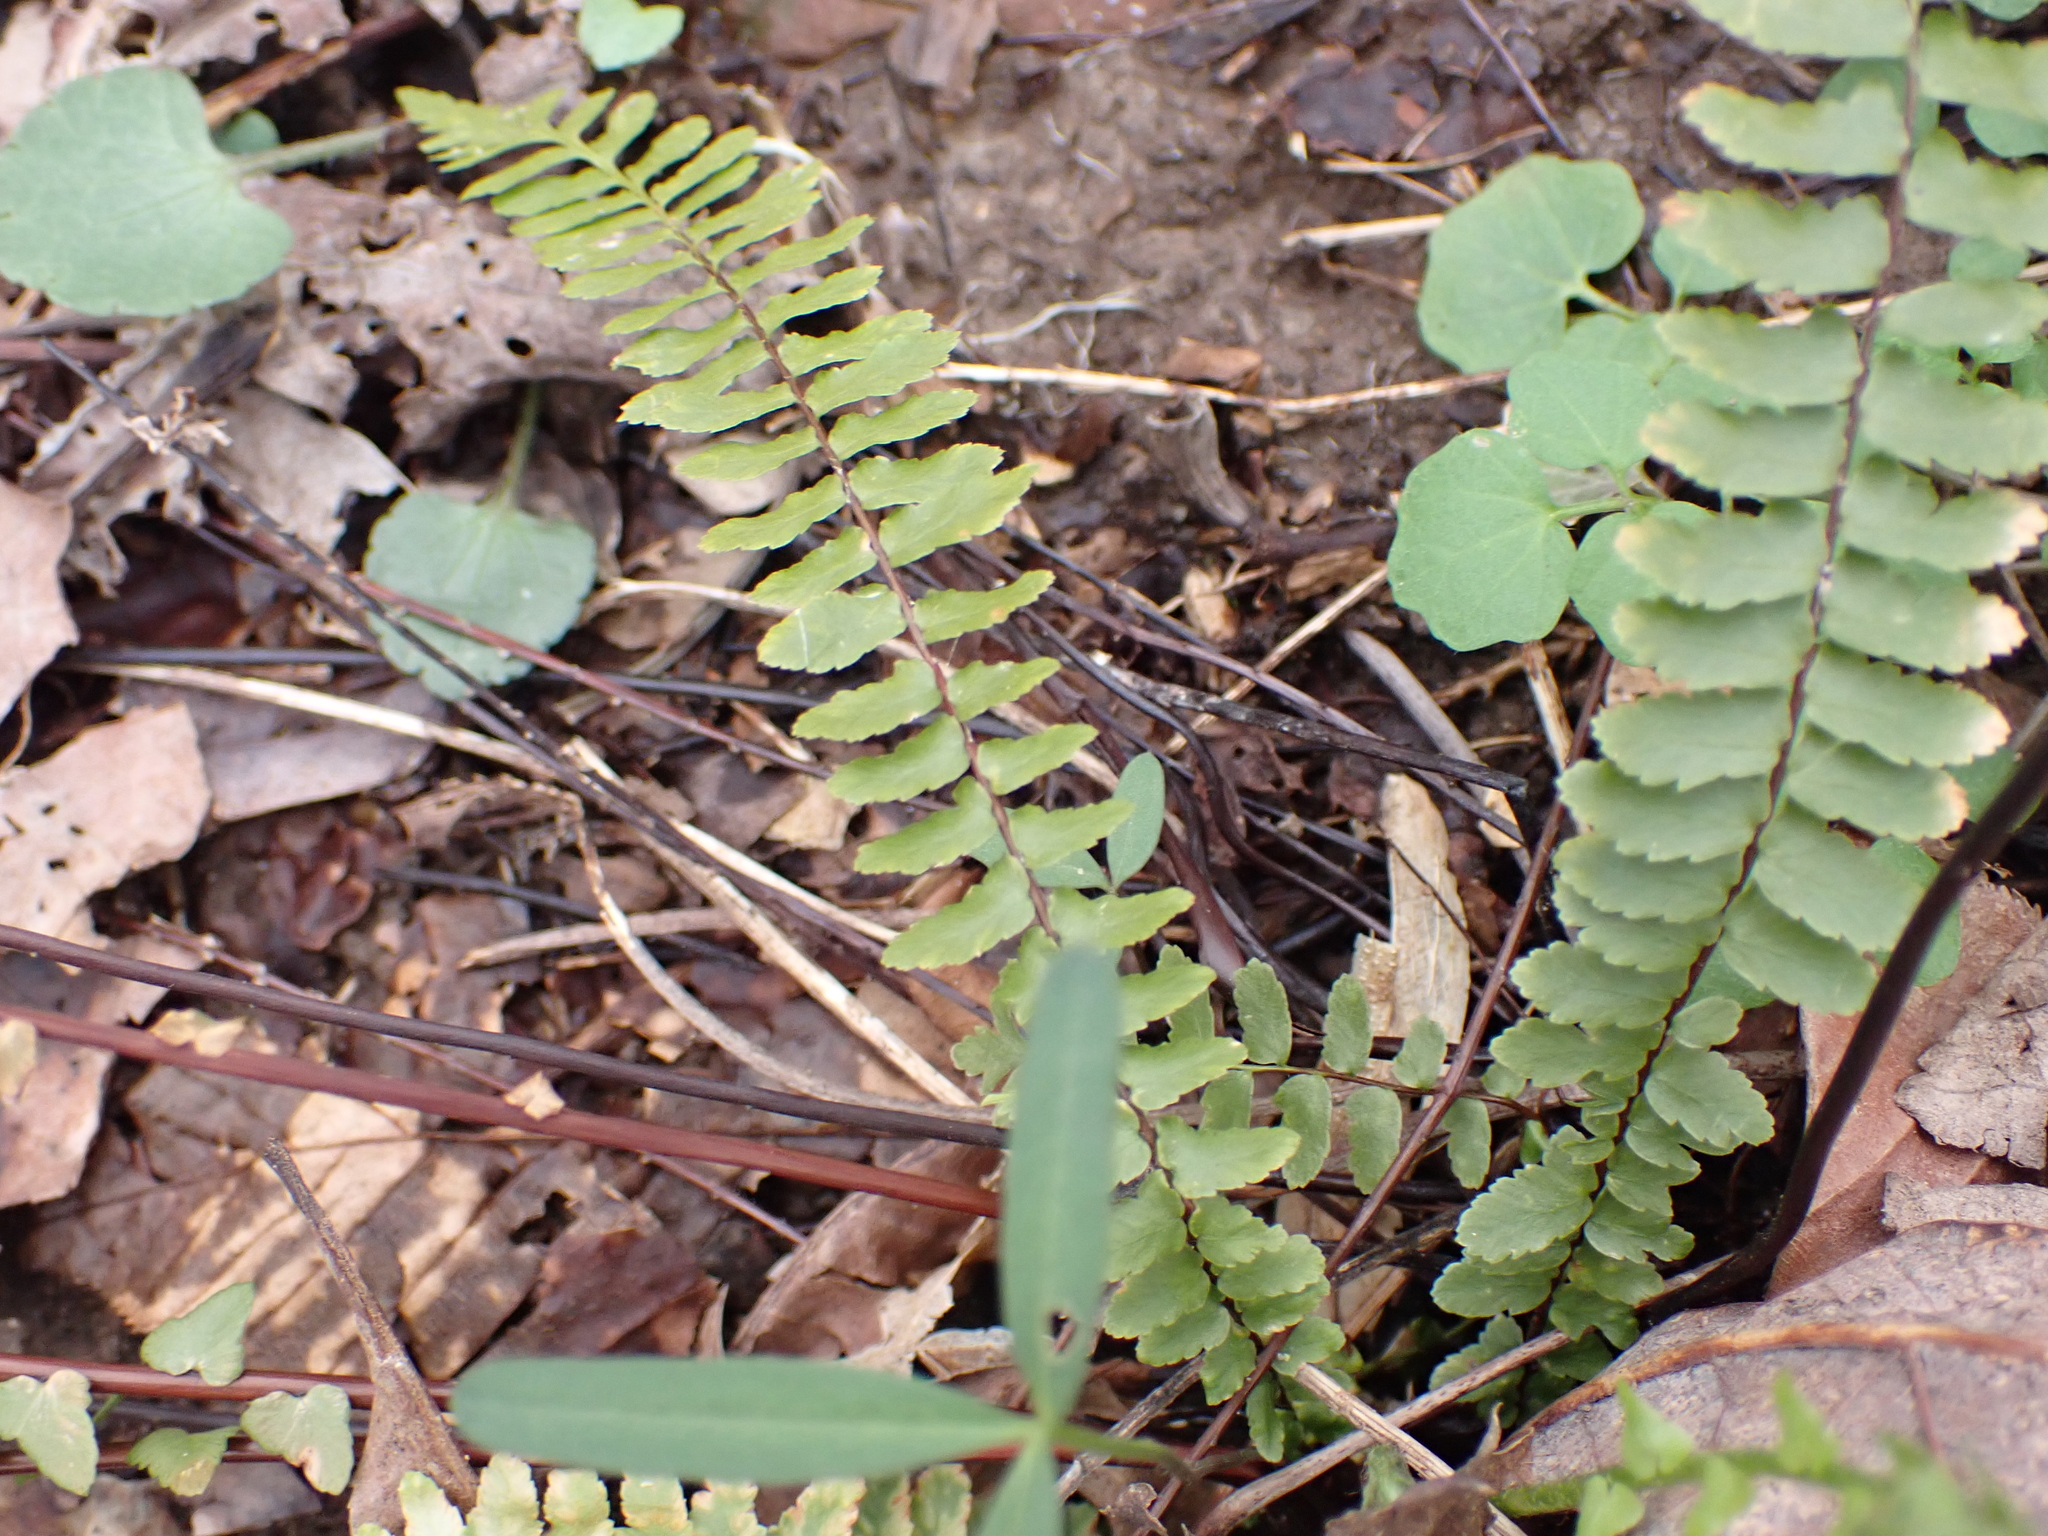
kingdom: Plantae
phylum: Tracheophyta
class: Polypodiopsida
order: Polypodiales
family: Aspleniaceae
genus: Asplenium
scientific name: Asplenium platyneuron
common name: Ebony spleenwort
